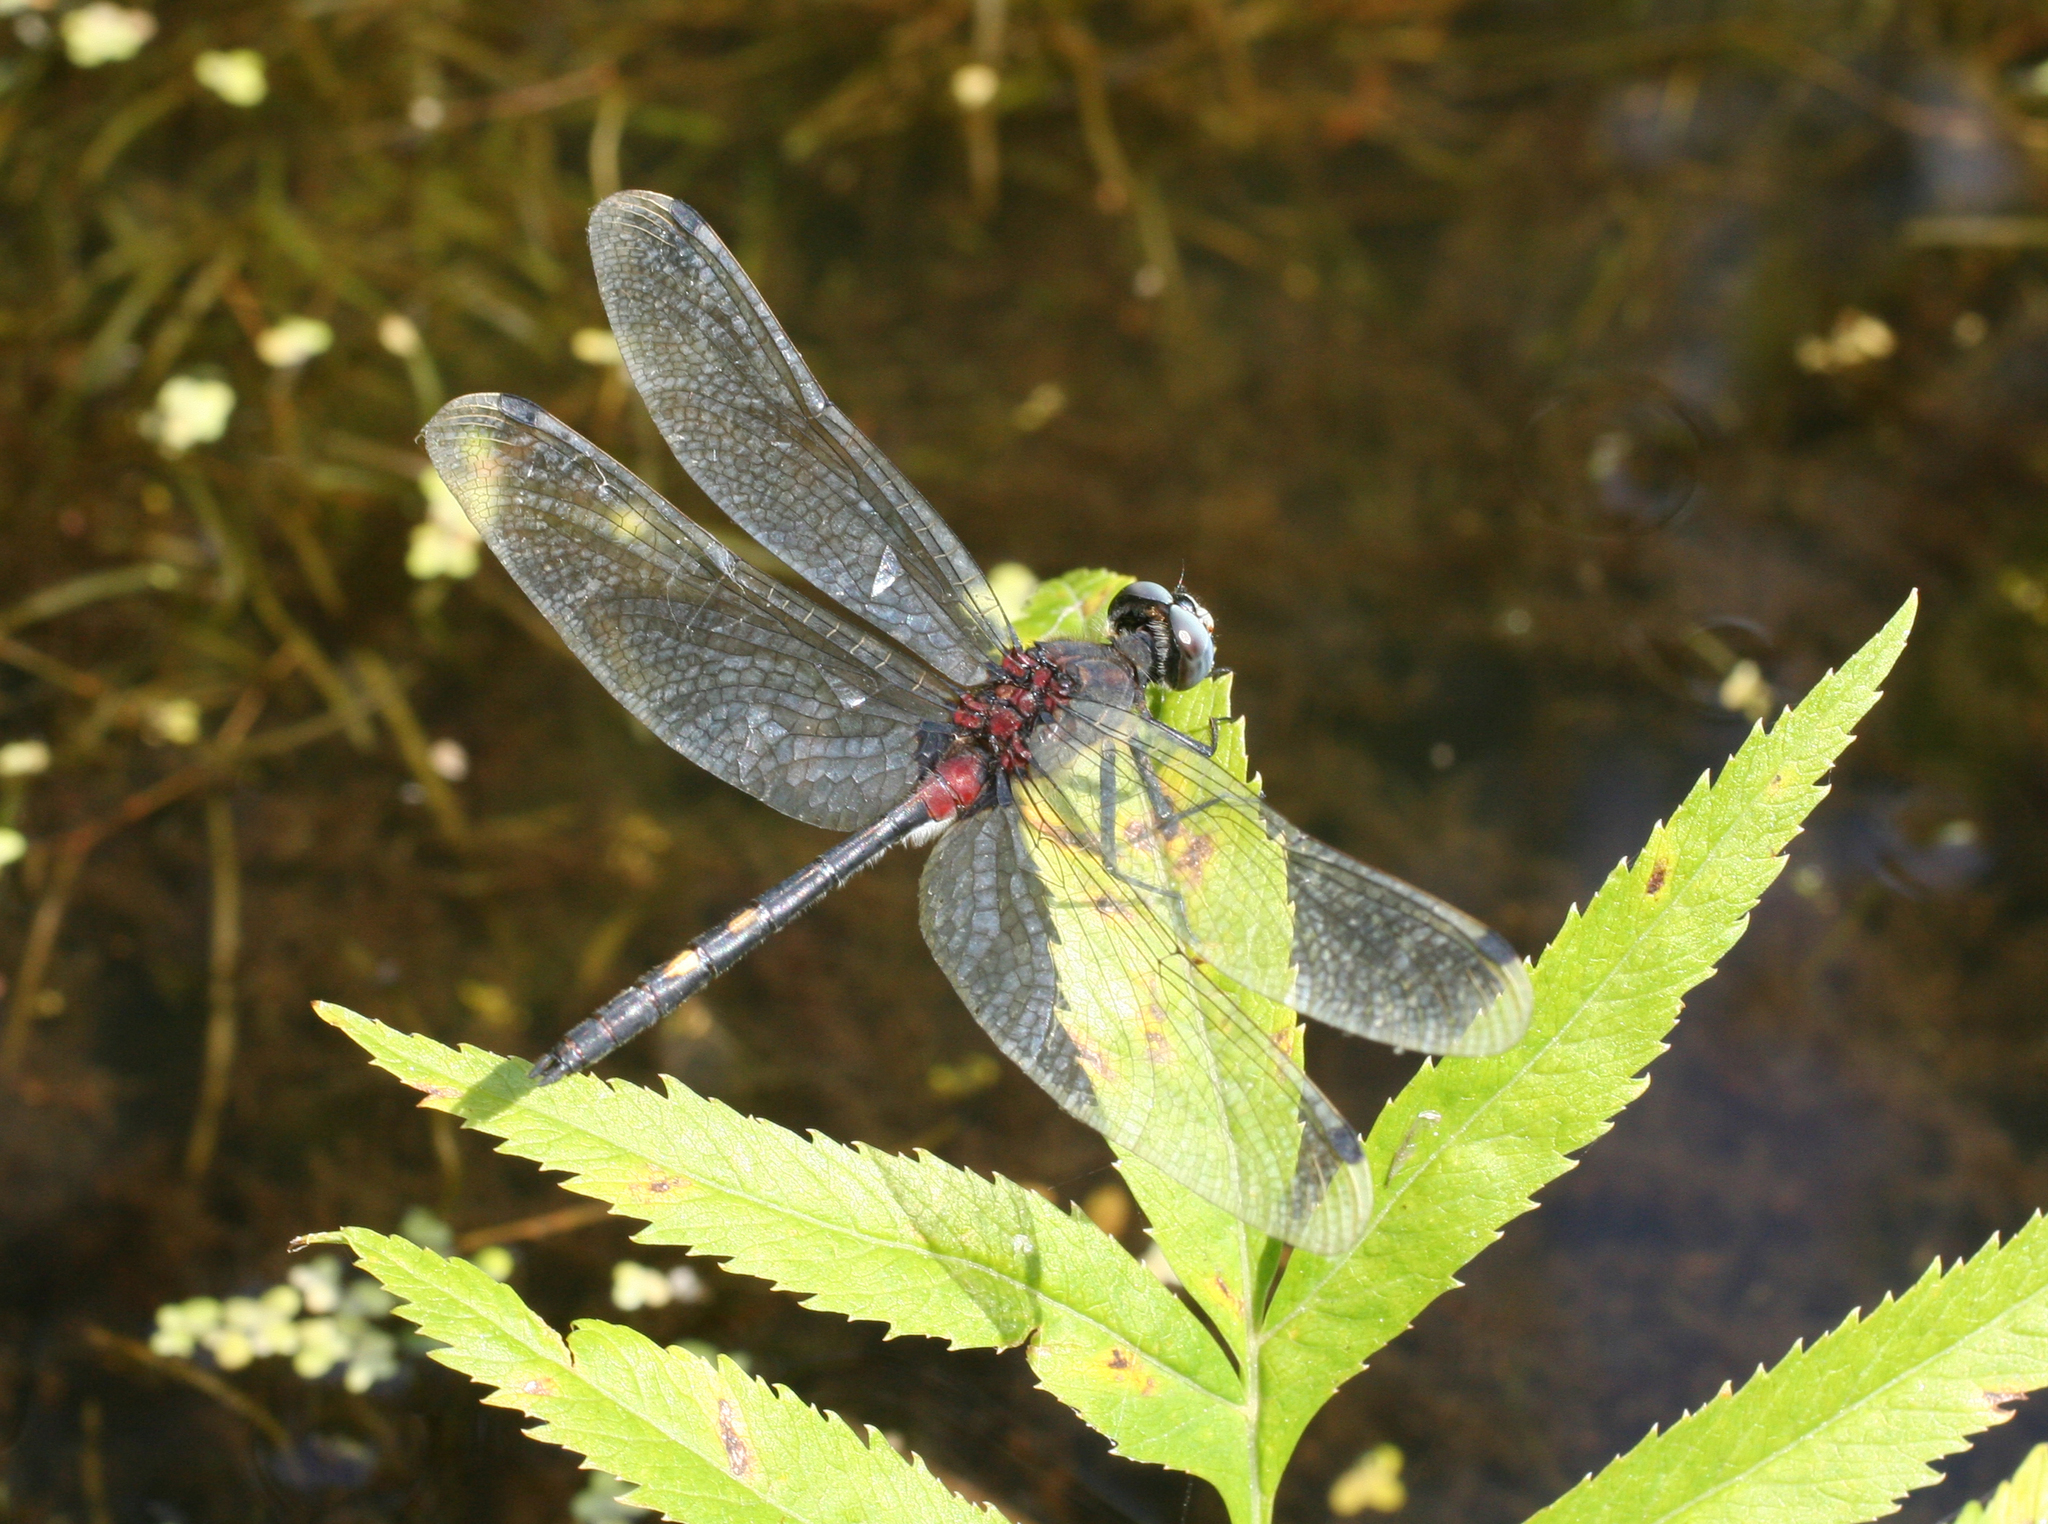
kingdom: Animalia
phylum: Arthropoda
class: Insecta
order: Odonata
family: Libellulidae
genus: Leucorrhinia
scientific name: Leucorrhinia orientalis
